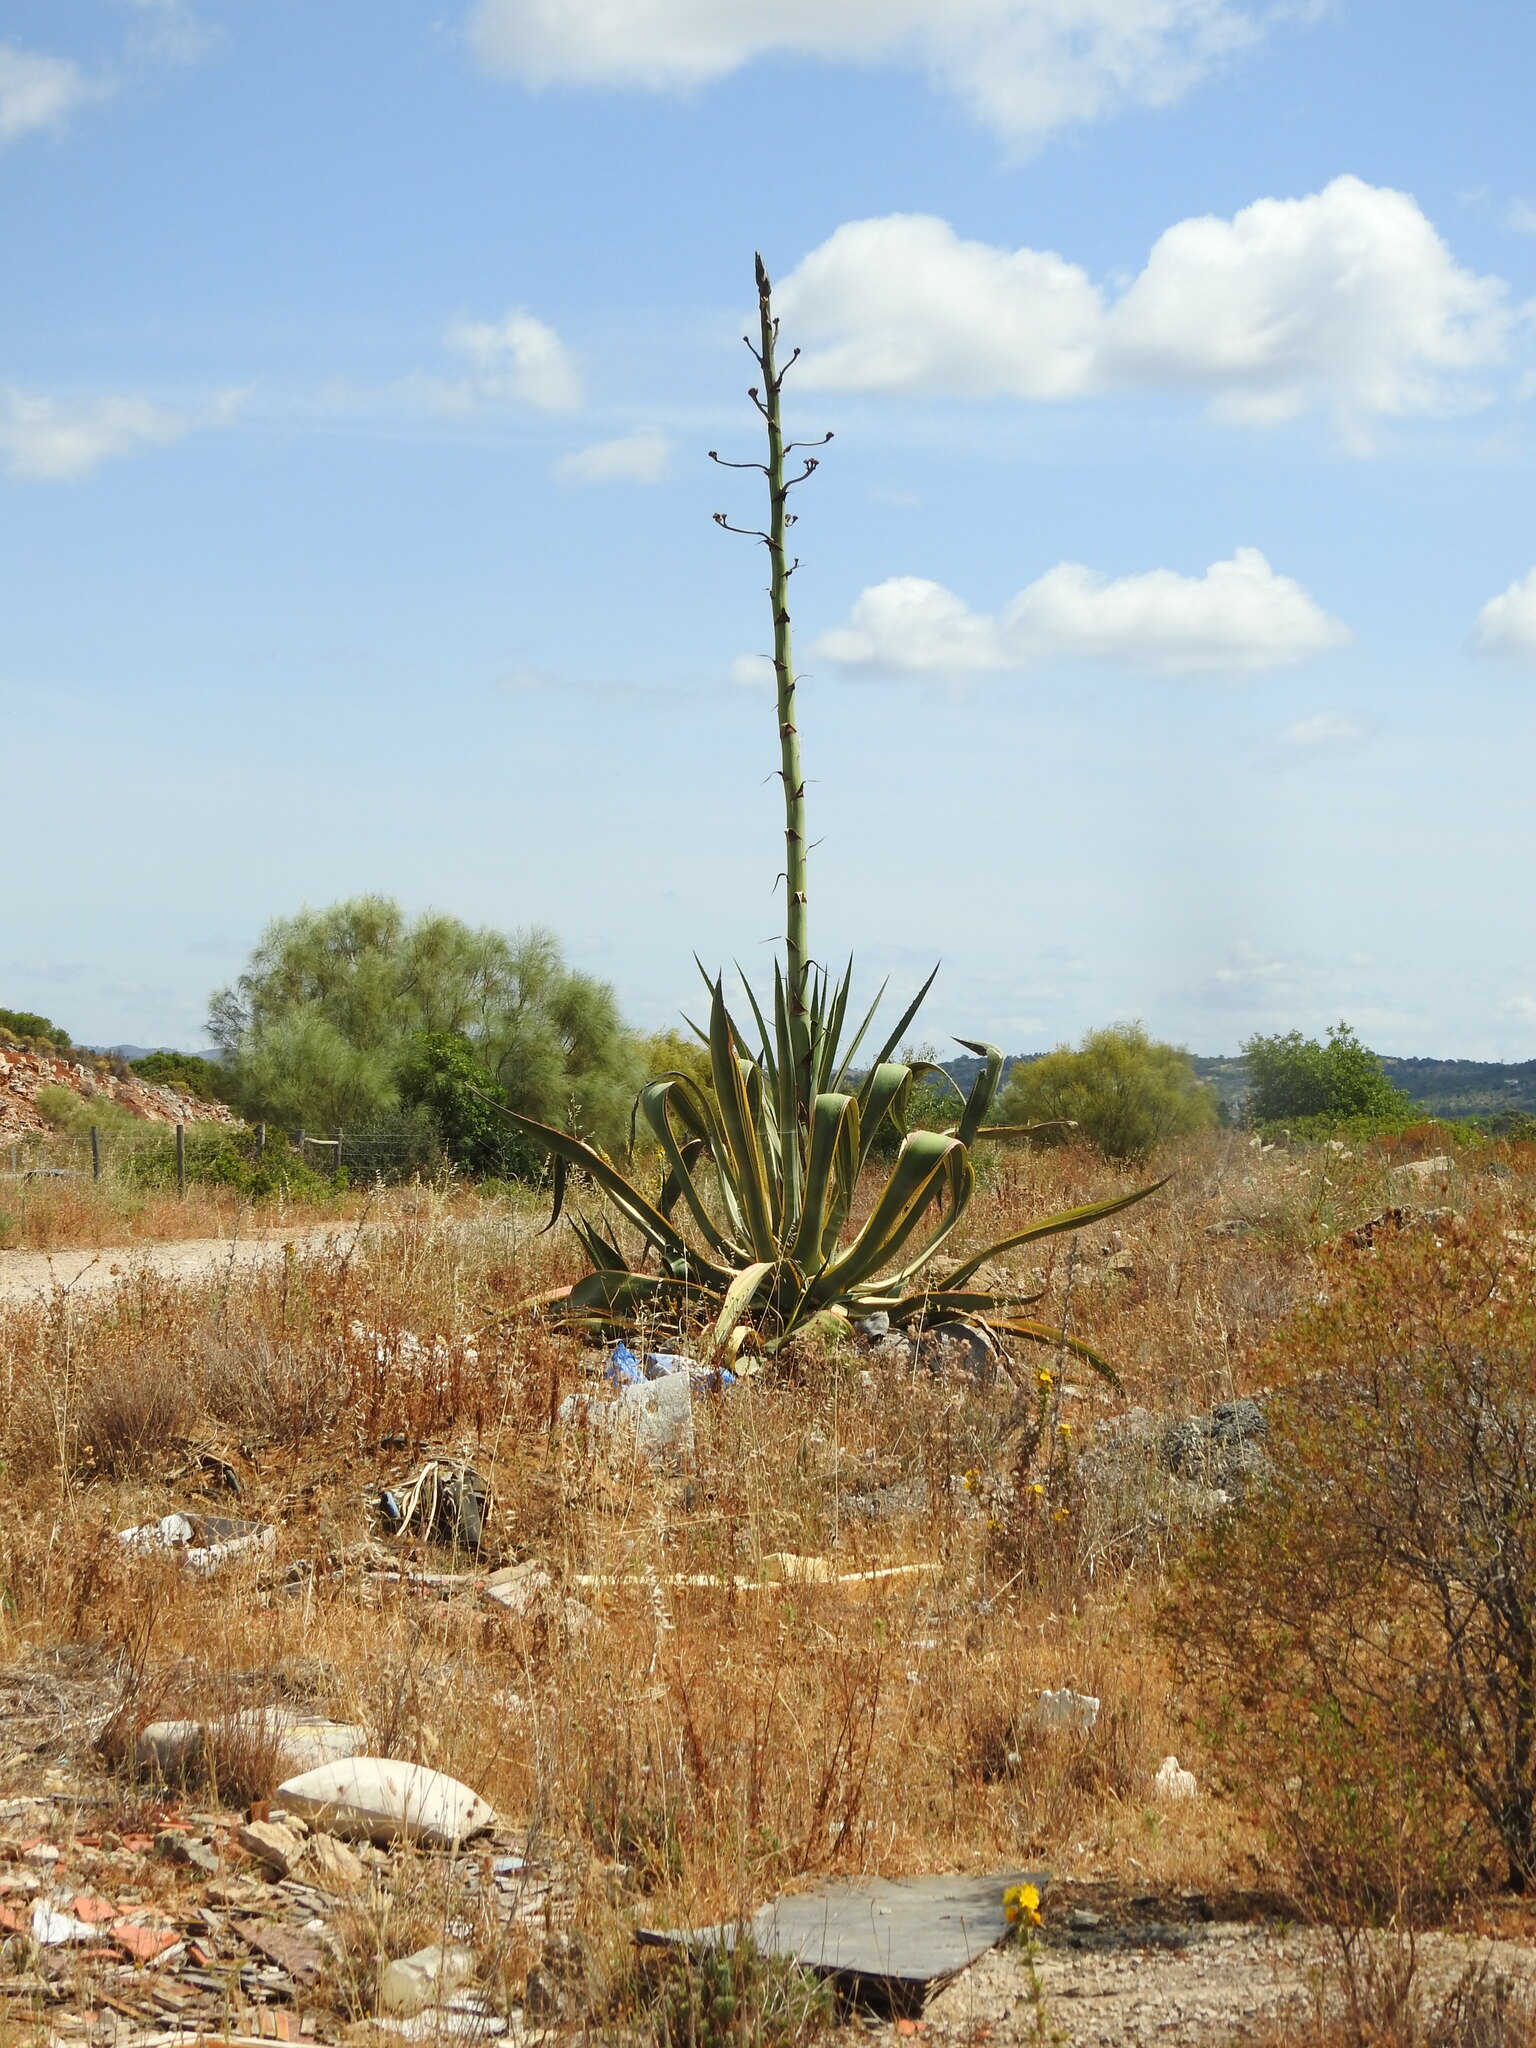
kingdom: Plantae
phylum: Tracheophyta
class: Liliopsida
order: Asparagales
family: Asparagaceae
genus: Agave
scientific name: Agave americana
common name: Centuryplant
